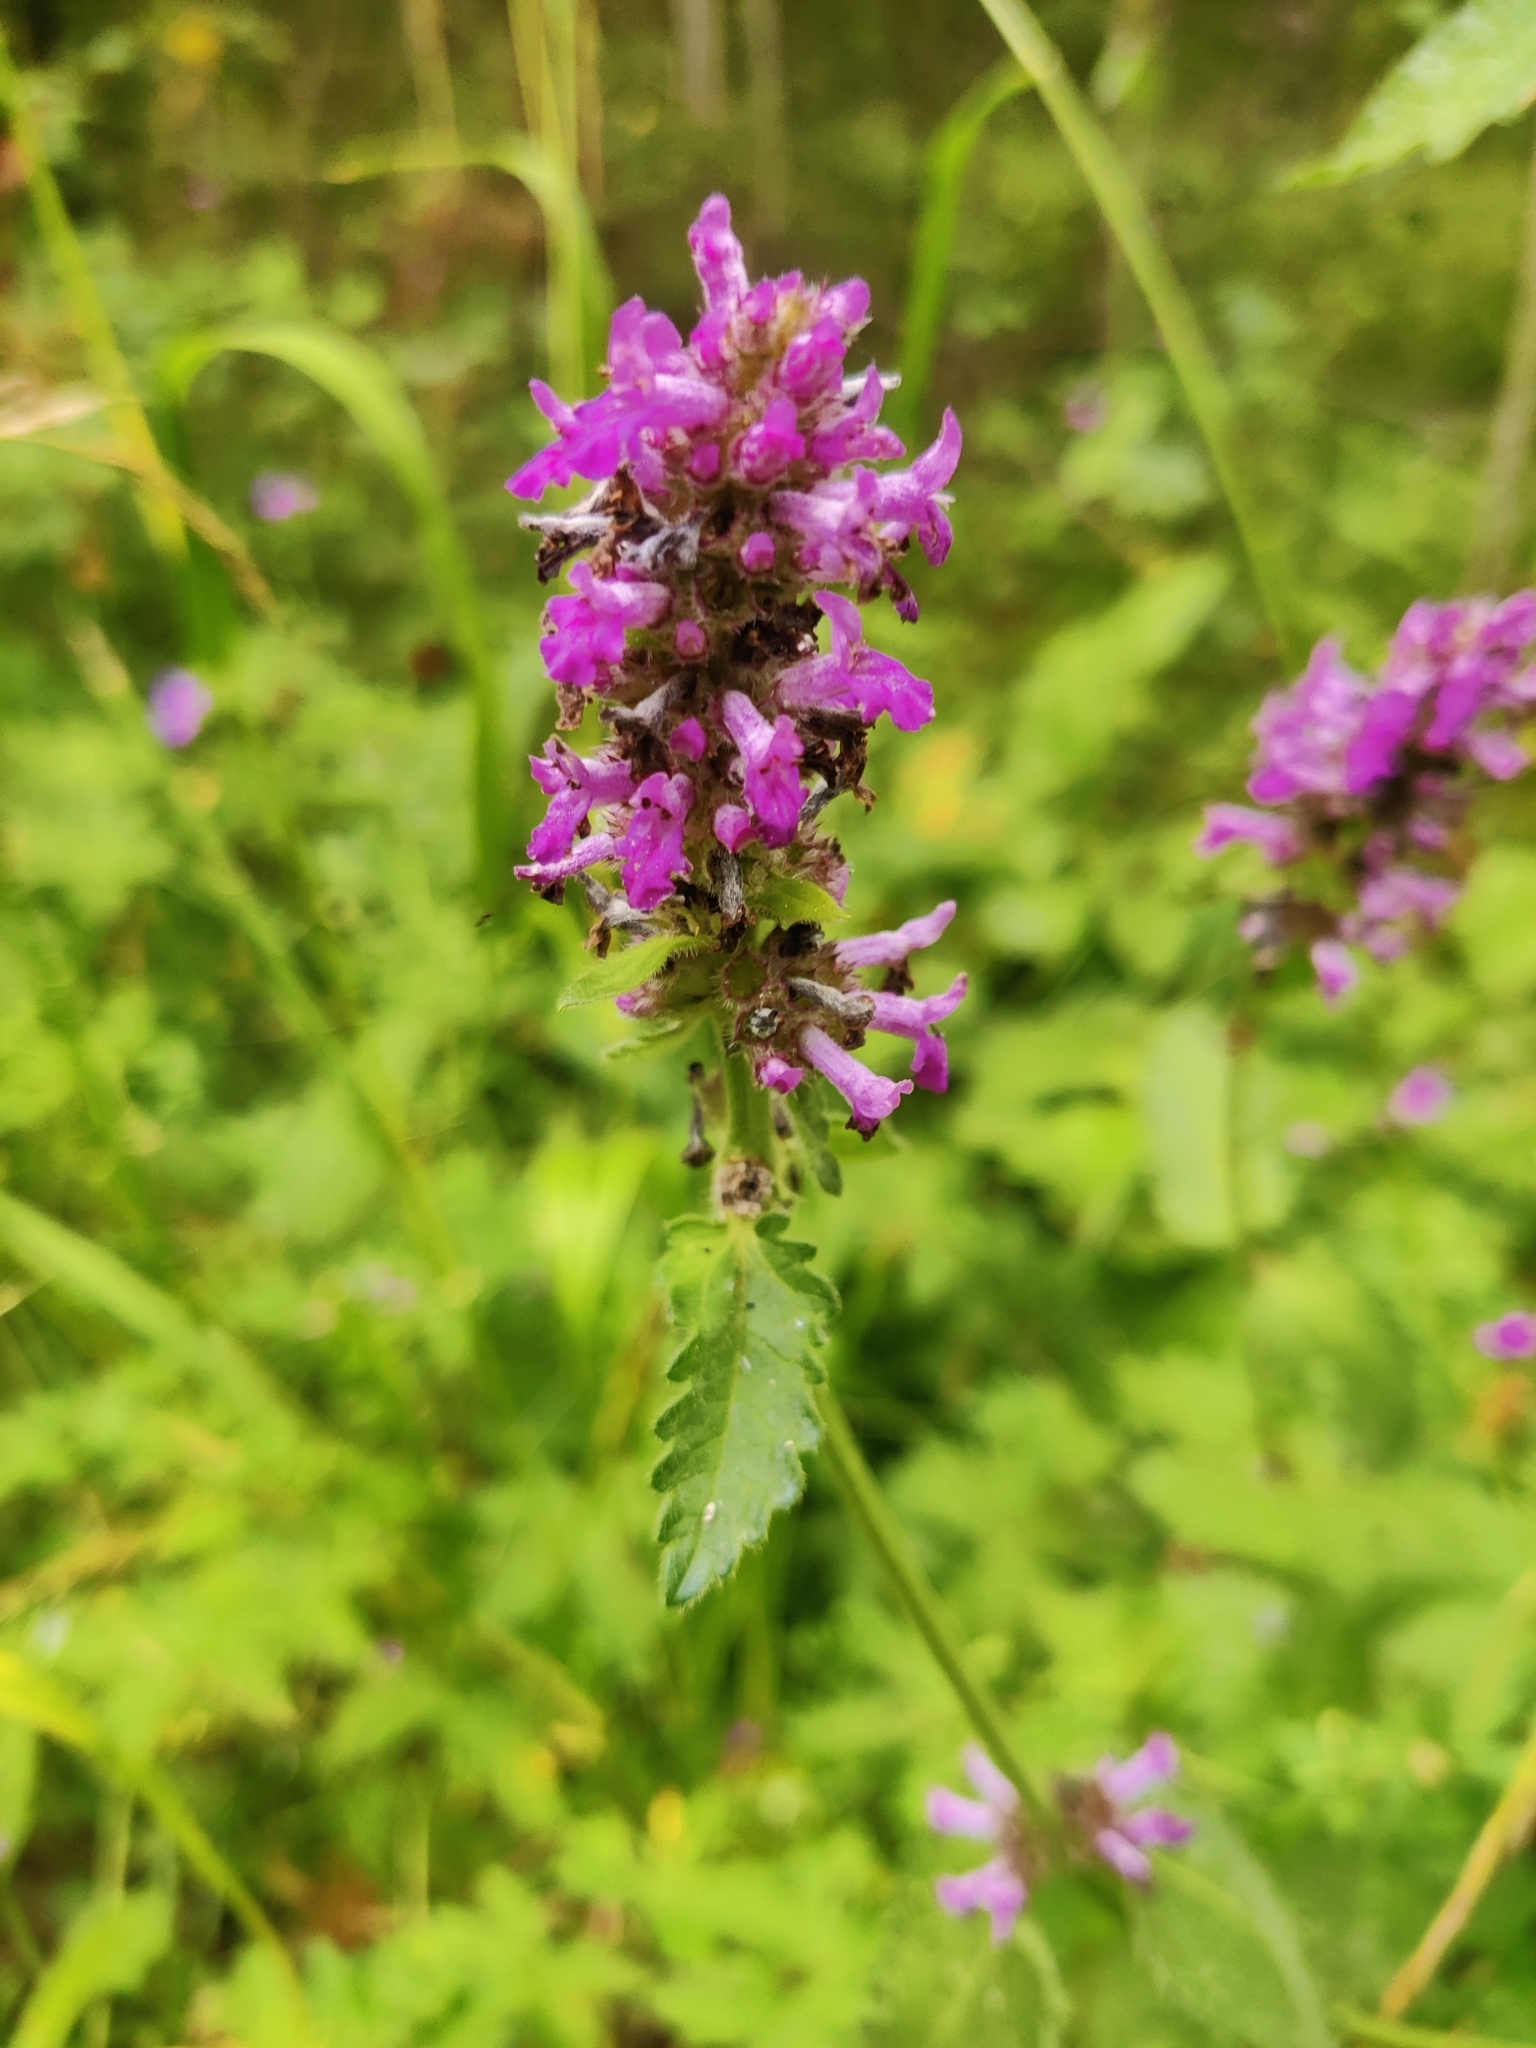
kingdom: Plantae
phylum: Tracheophyta
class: Magnoliopsida
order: Lamiales
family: Lamiaceae
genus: Betonica
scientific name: Betonica officinalis
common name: Bishop's-wort
